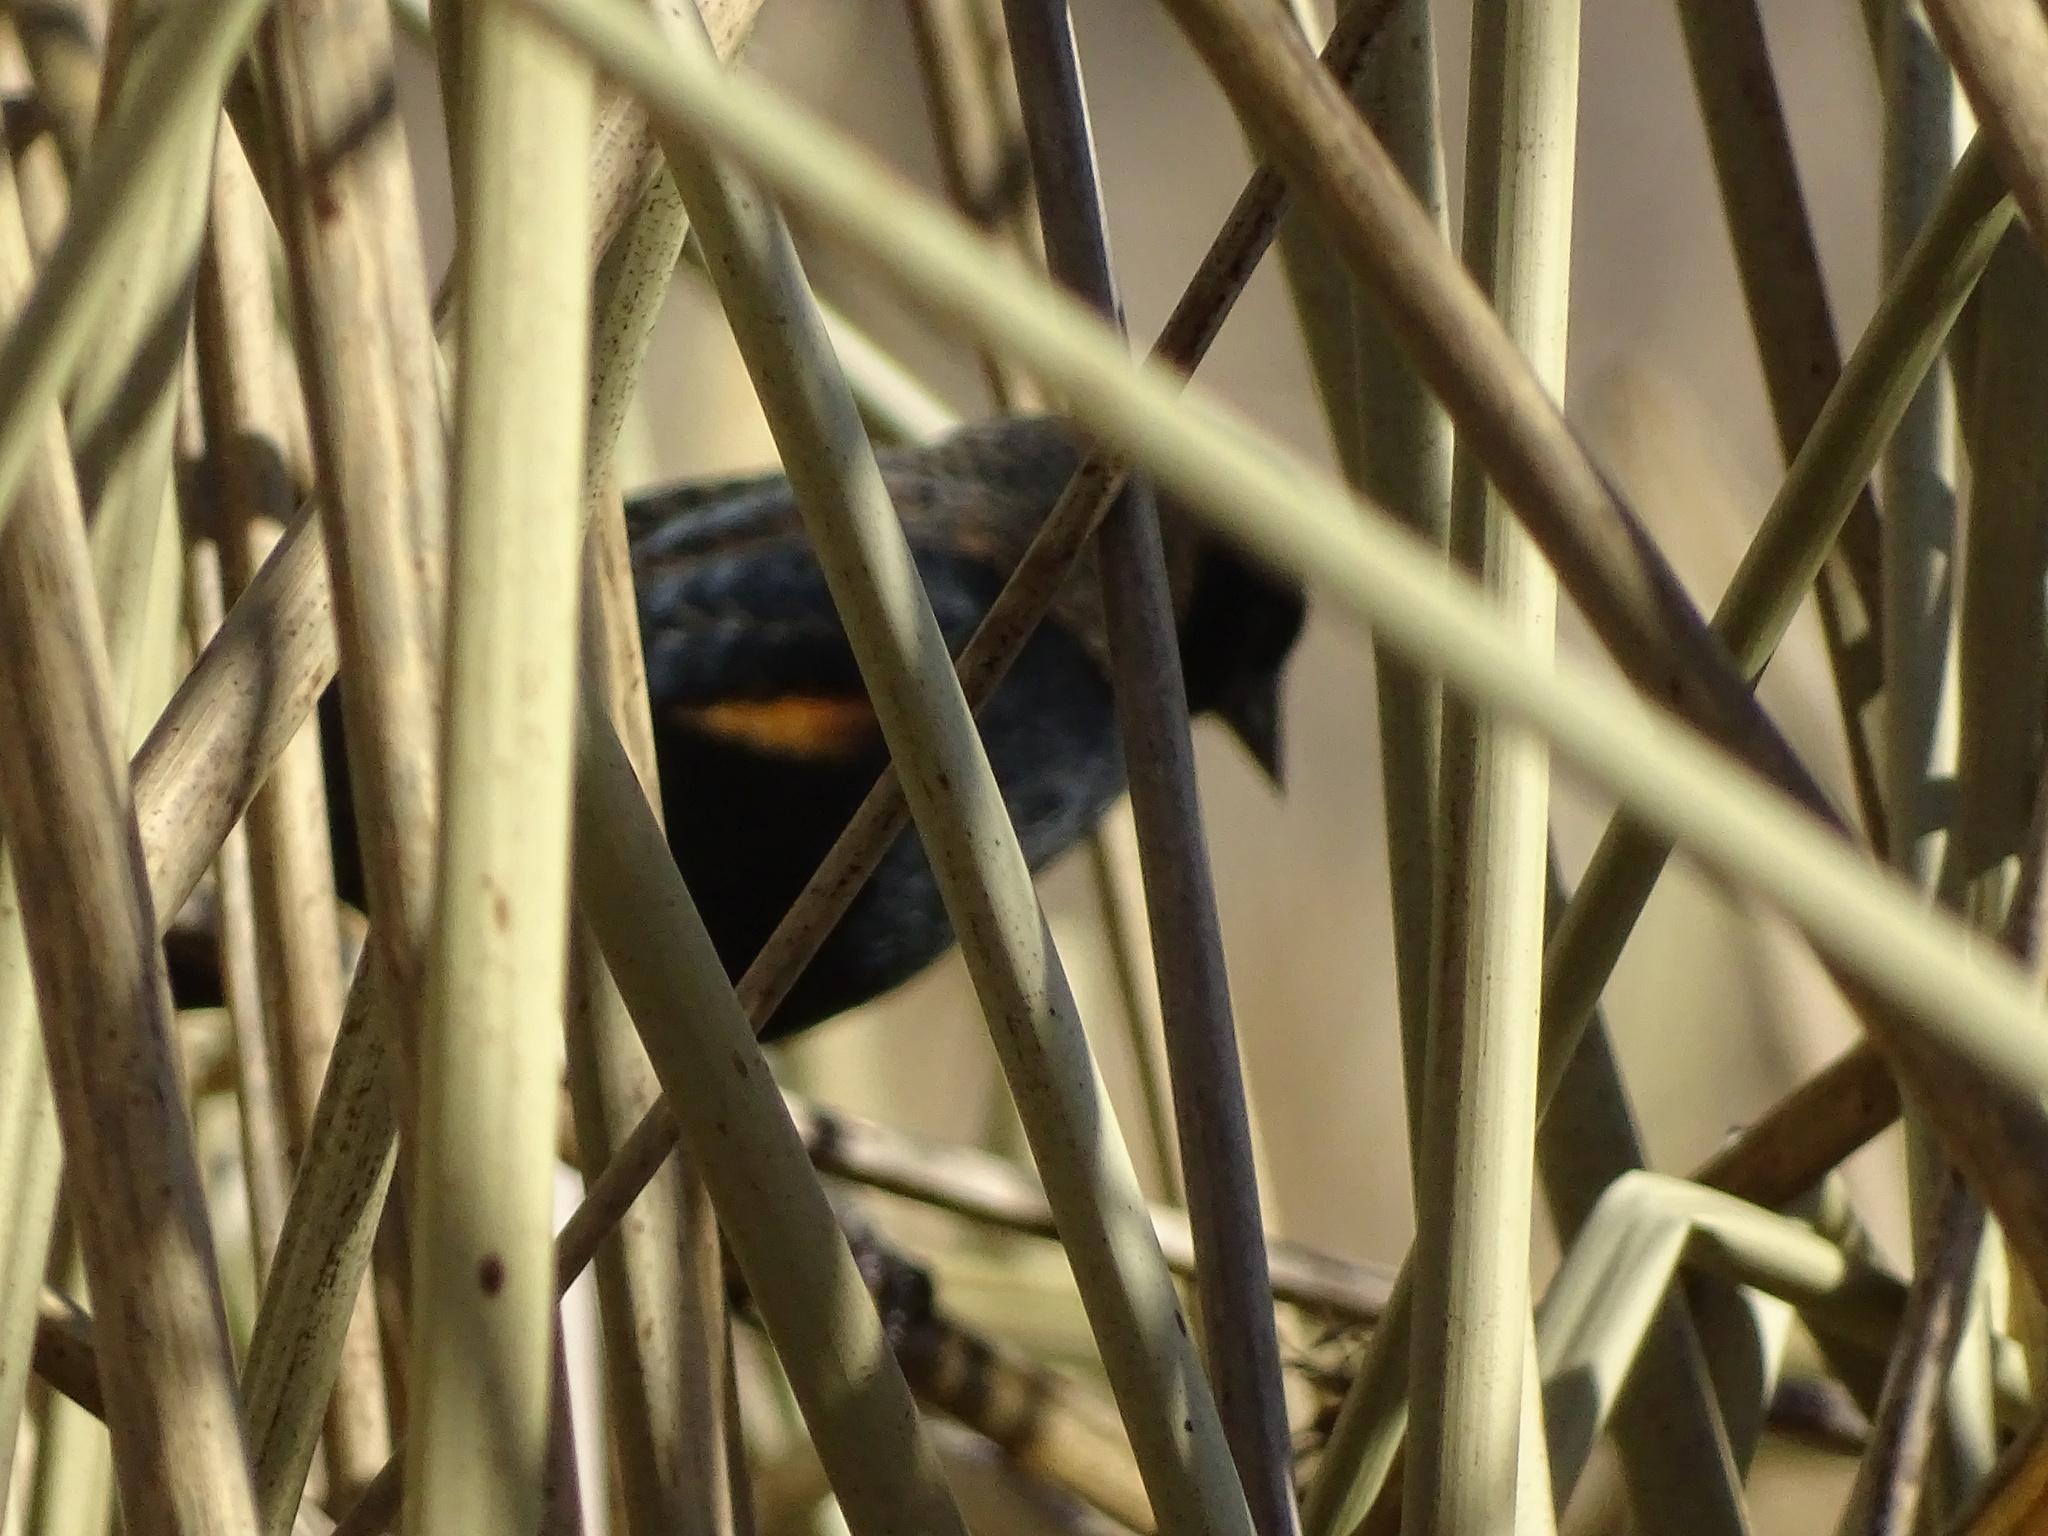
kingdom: Animalia
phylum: Chordata
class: Aves
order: Passeriformes
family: Icteridae
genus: Agelaius
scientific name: Agelaius phoeniceus
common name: Red-winged blackbird
